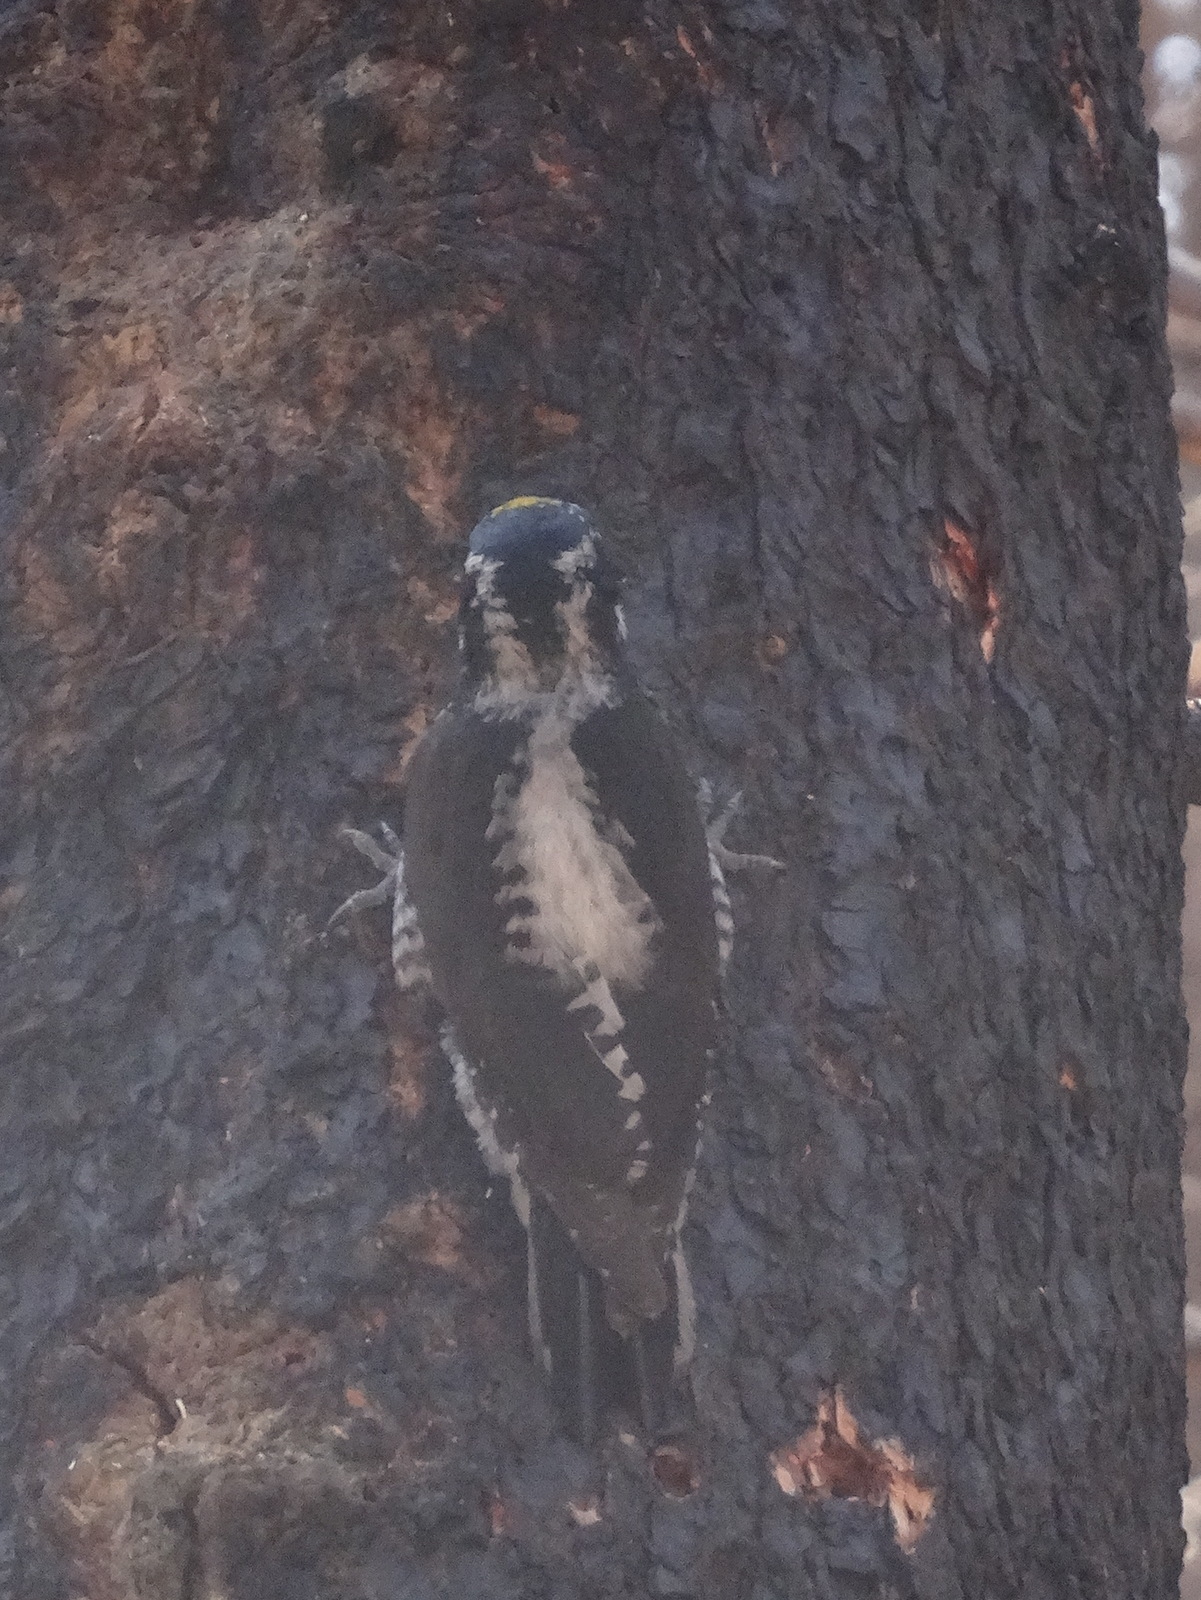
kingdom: Animalia
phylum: Chordata
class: Aves
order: Piciformes
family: Picidae
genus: Picoides
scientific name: Picoides dorsalis
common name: American three-toed woodpecker
